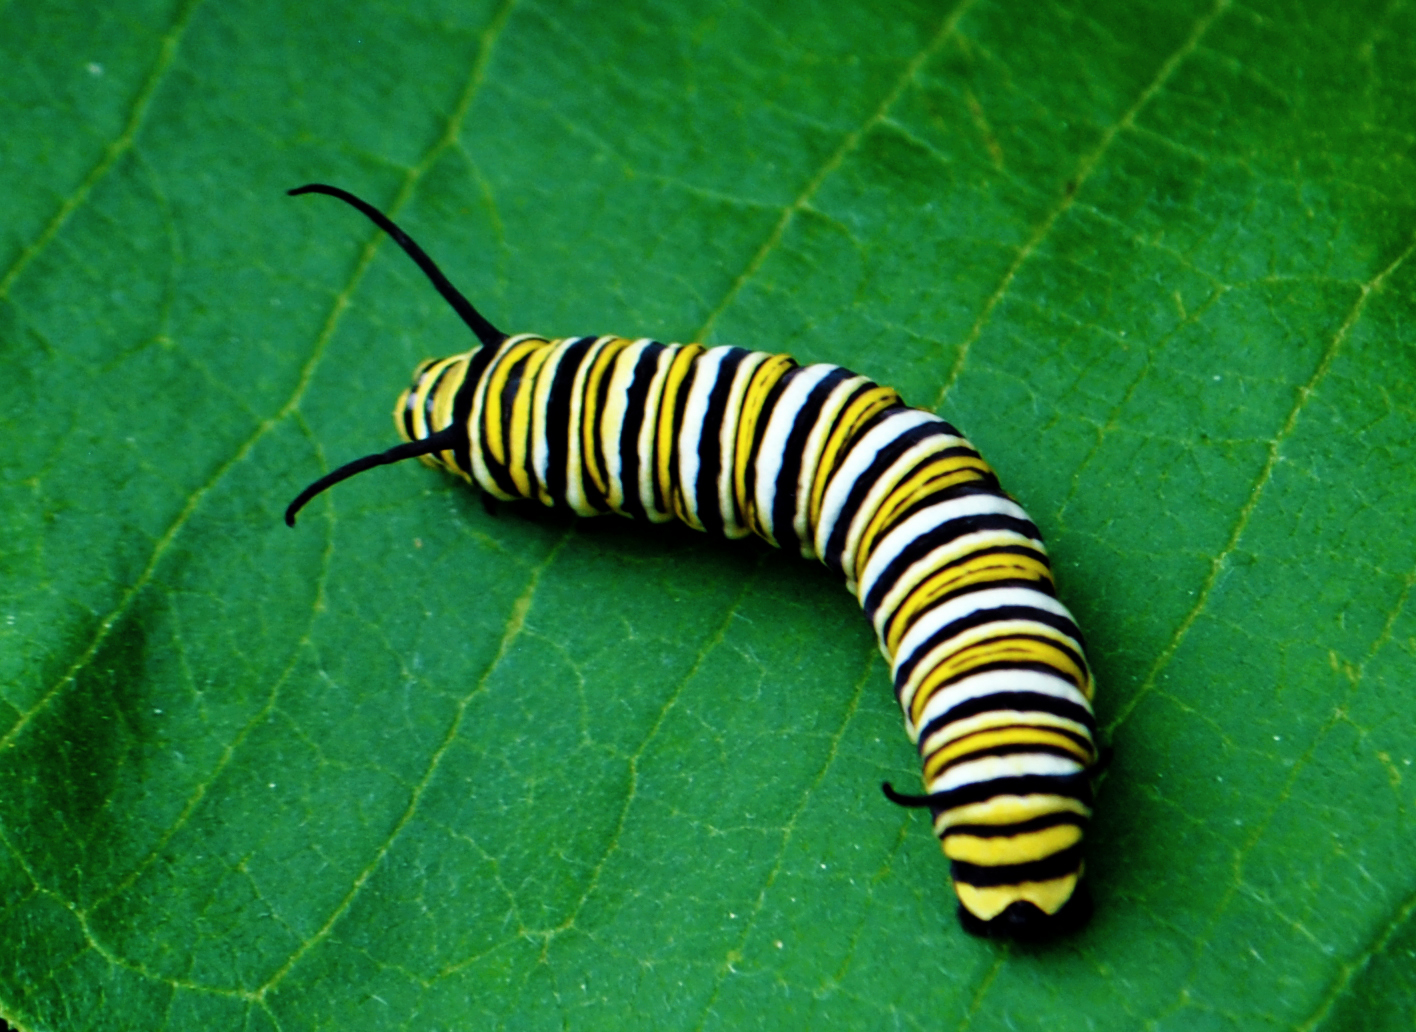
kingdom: Animalia
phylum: Arthropoda
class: Insecta
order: Lepidoptera
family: Nymphalidae
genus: Danaus
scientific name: Danaus plexippus
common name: Monarch
